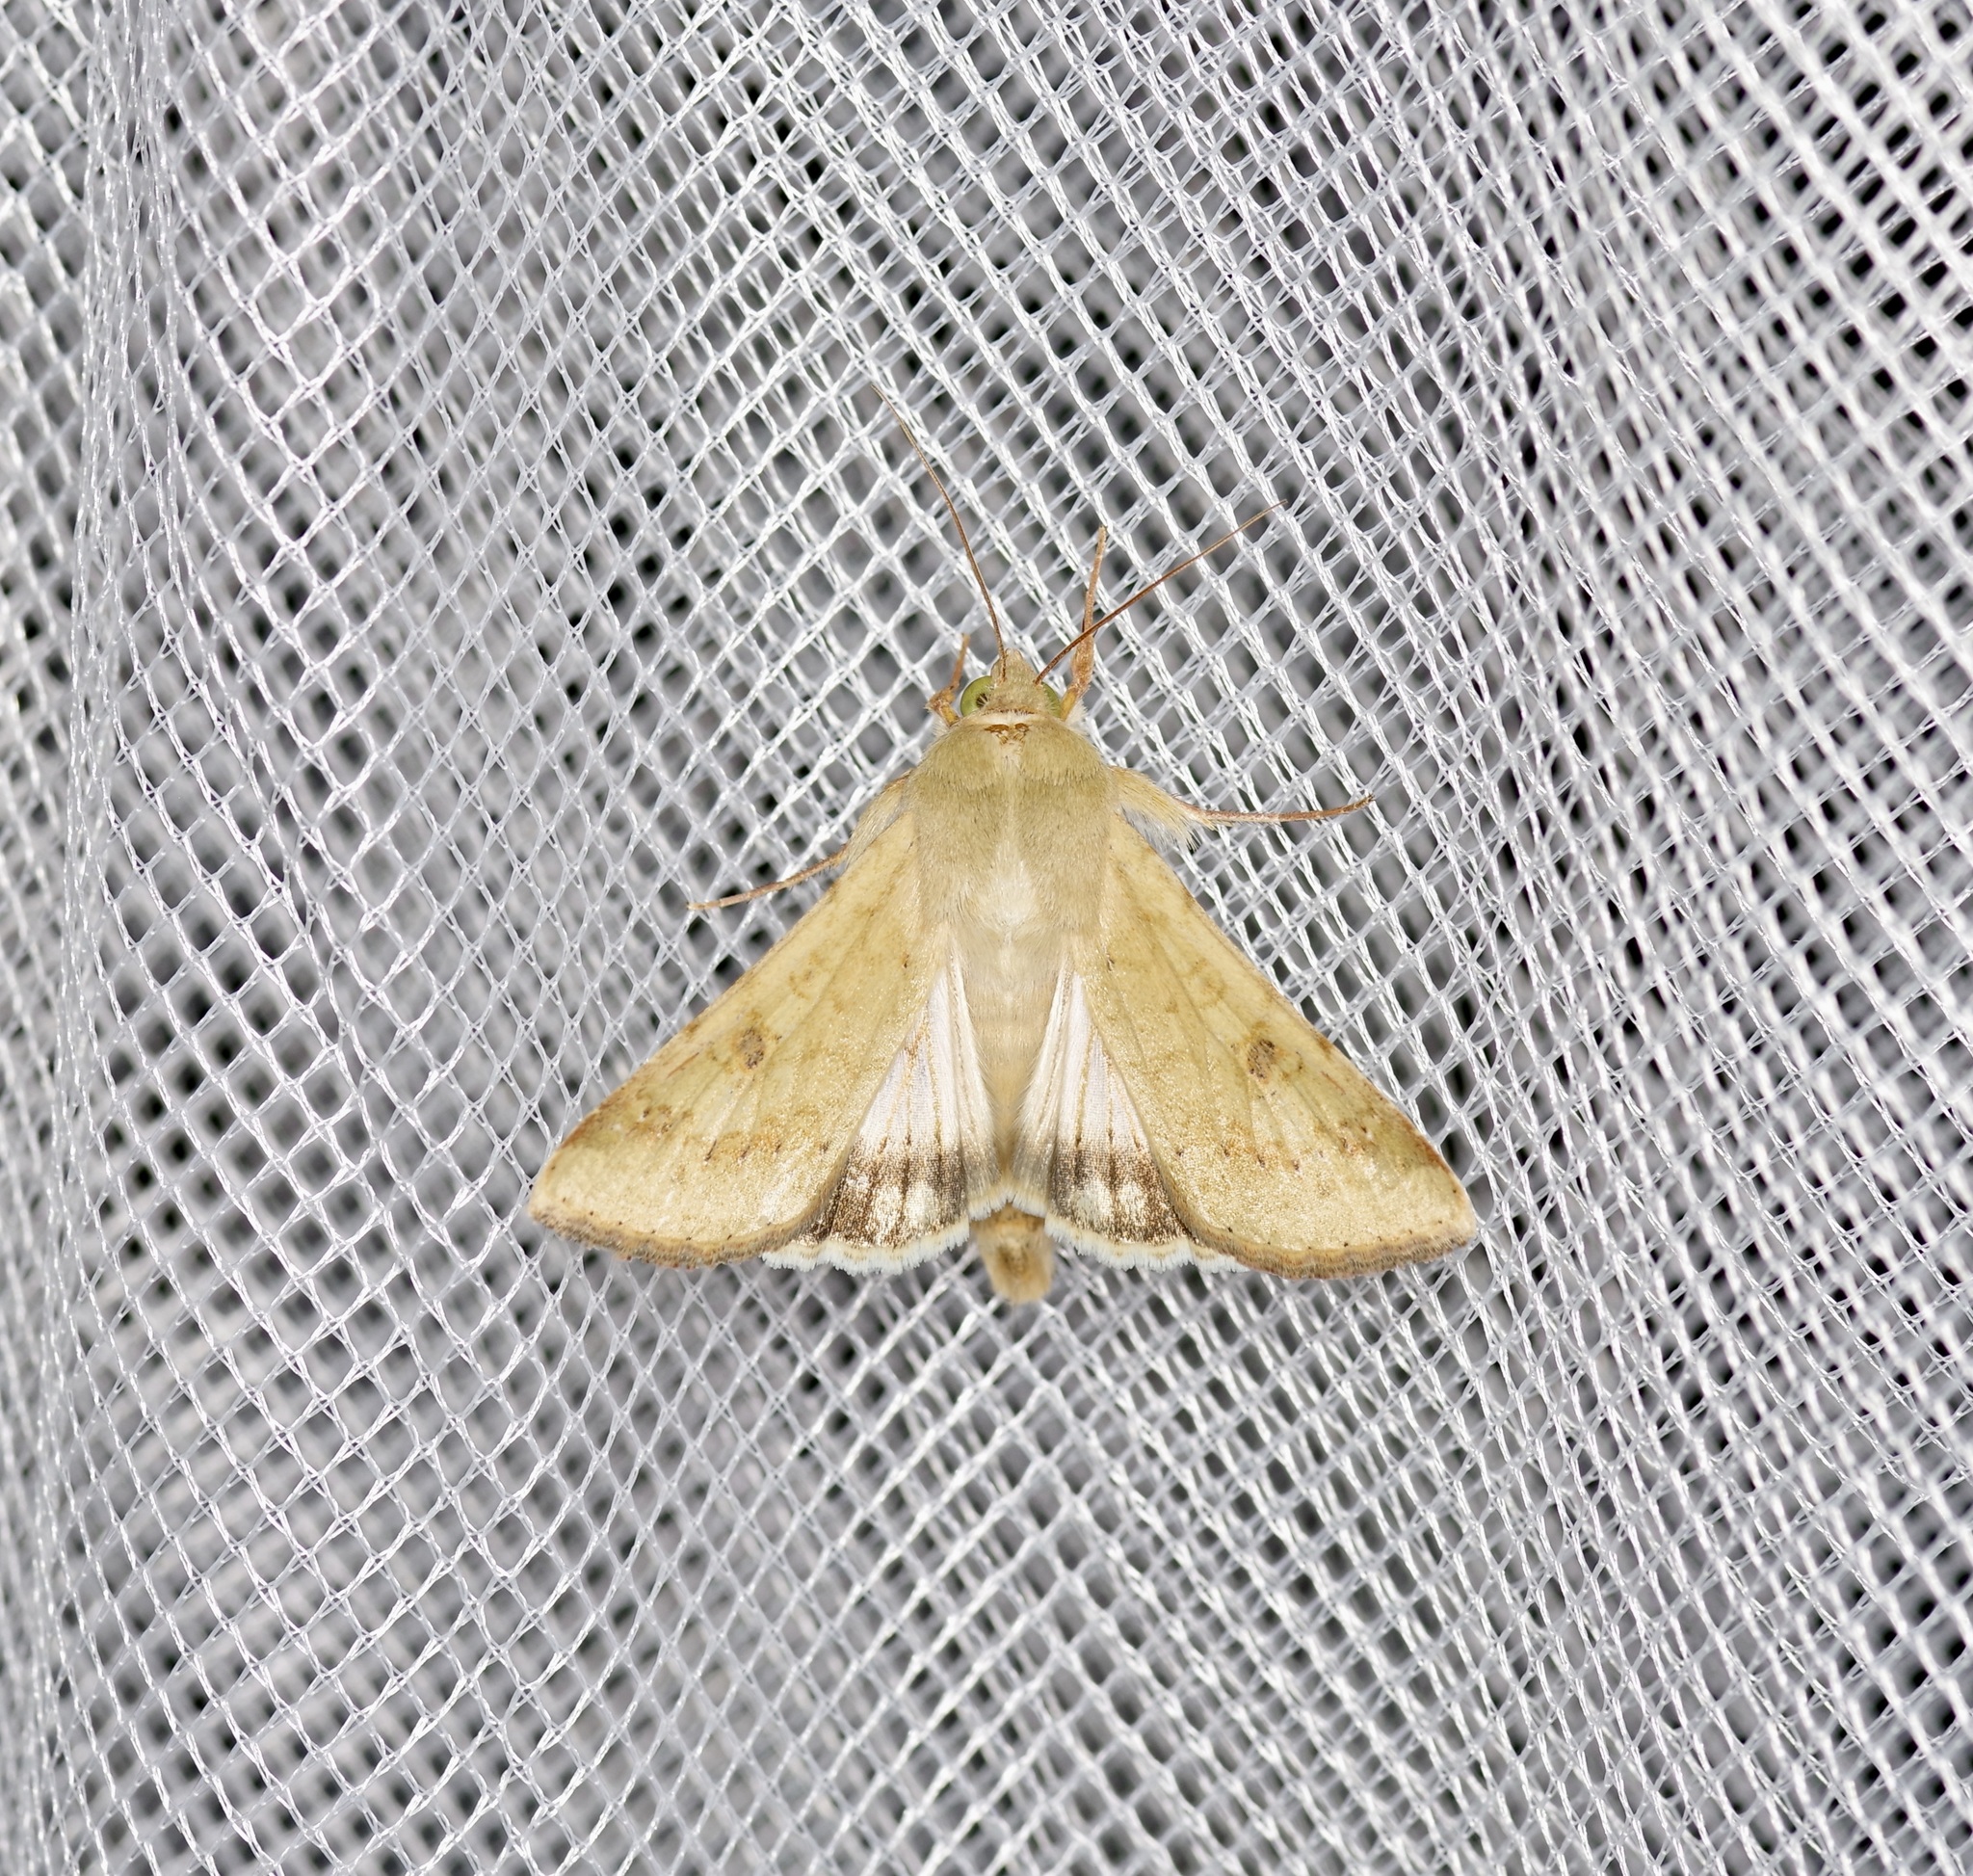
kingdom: Animalia
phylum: Arthropoda
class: Insecta
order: Lepidoptera
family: Noctuidae
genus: Helicoverpa
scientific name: Helicoverpa zea
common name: Bollworm
